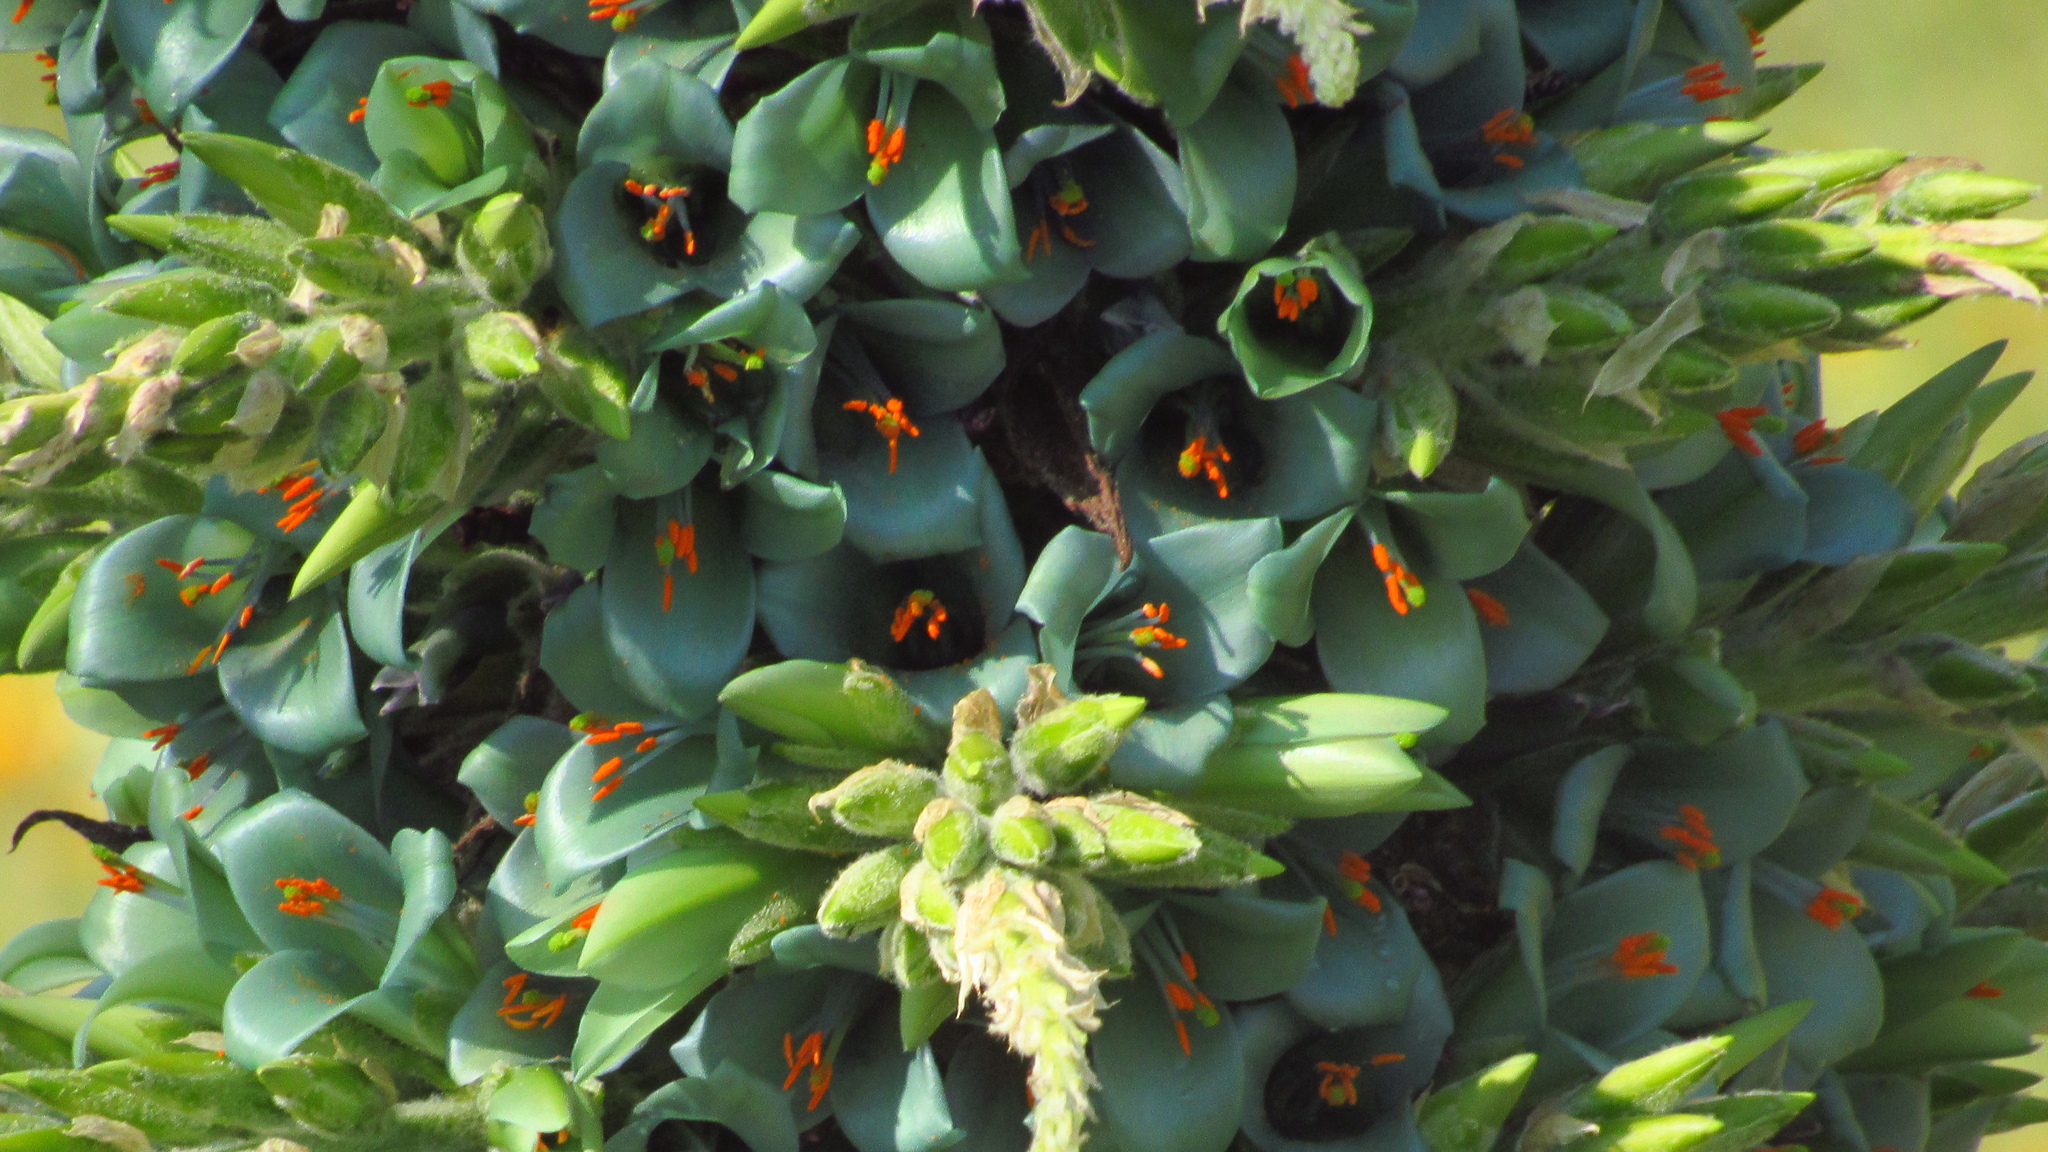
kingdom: Plantae
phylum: Tracheophyta
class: Liliopsida
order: Poales
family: Bromeliaceae
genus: Puya
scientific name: Puya alpestris
